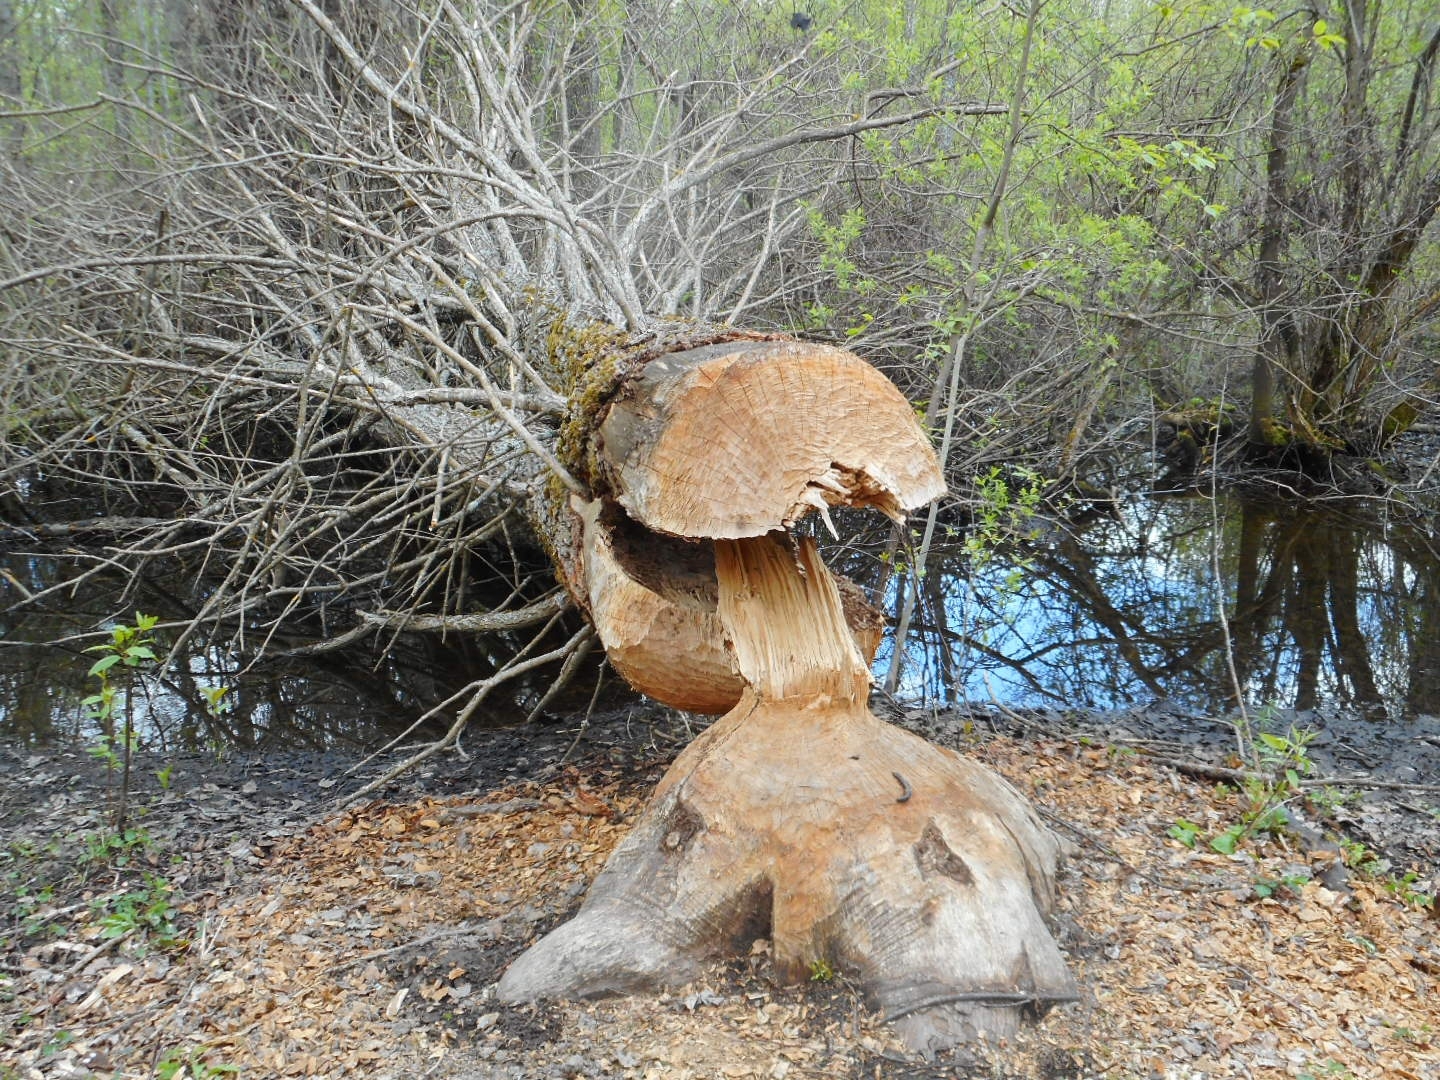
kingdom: Animalia
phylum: Chordata
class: Mammalia
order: Rodentia
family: Castoridae
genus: Castor
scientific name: Castor fiber
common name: Eurasian beaver
